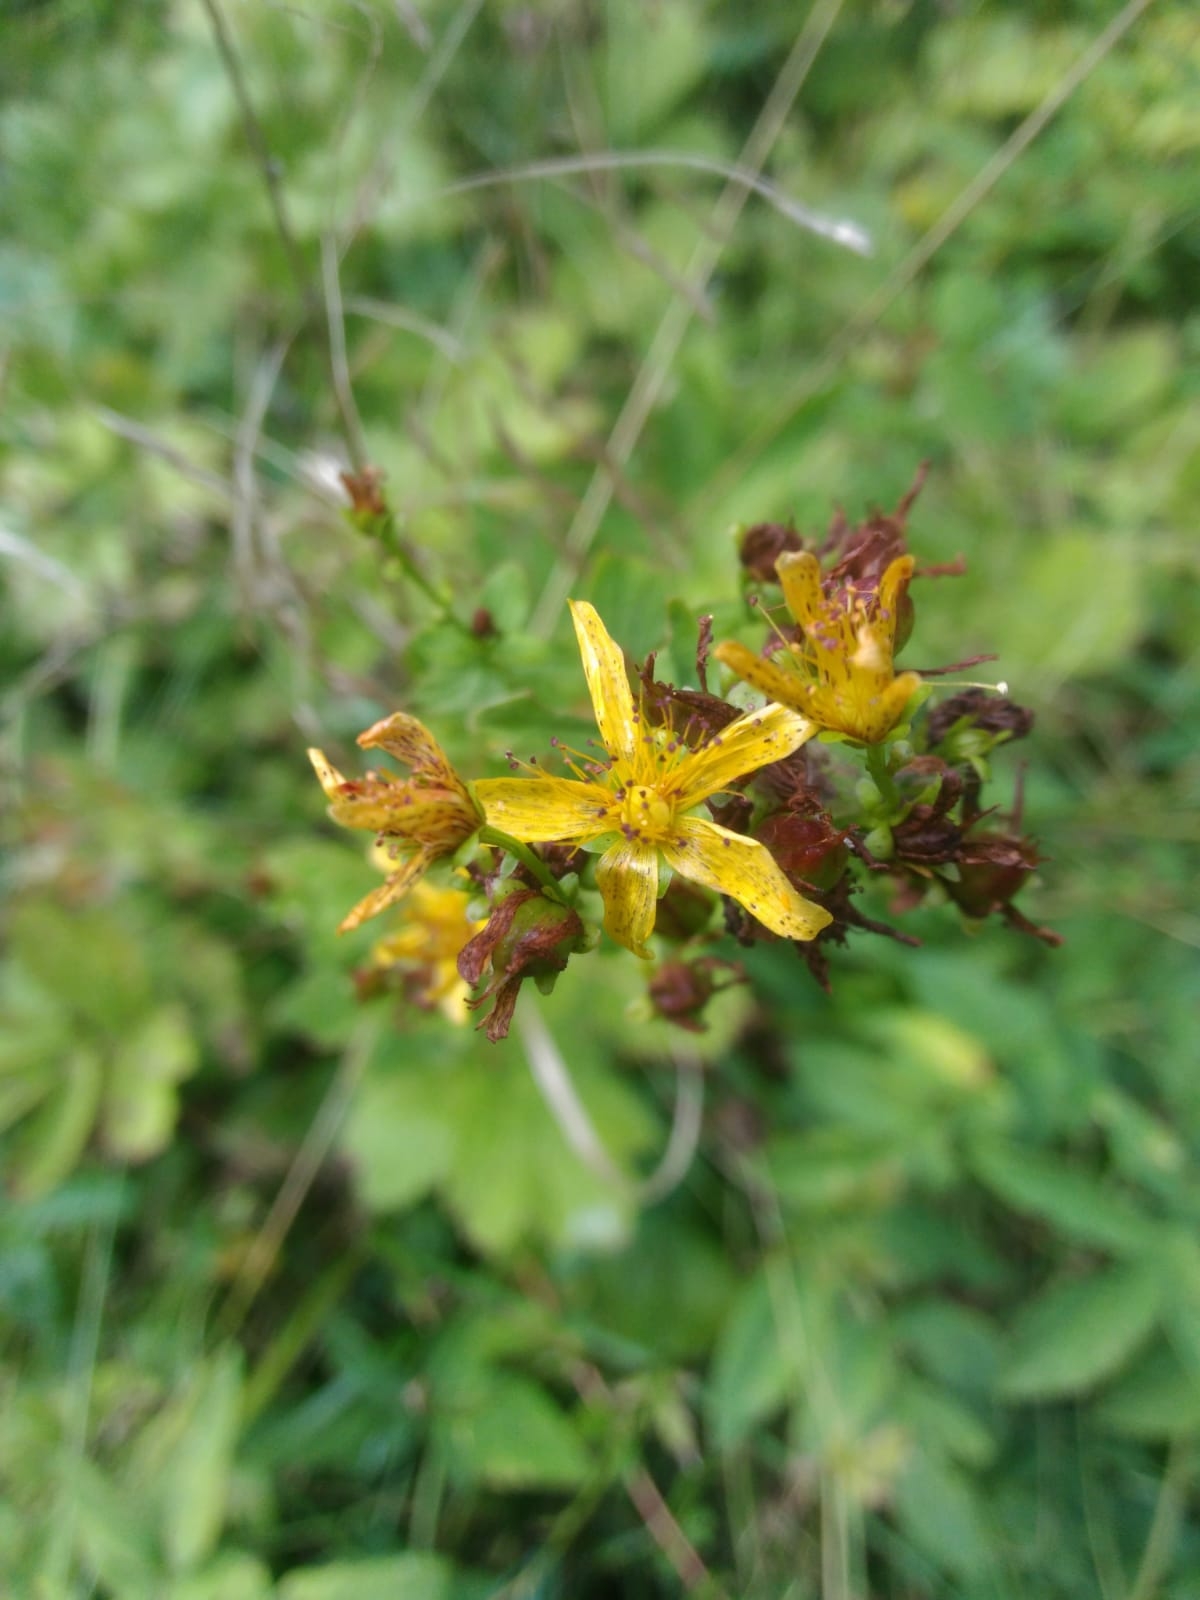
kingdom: Plantae
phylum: Tracheophyta
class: Magnoliopsida
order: Malpighiales
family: Hypericaceae
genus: Hypericum
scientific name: Hypericum maculatum
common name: Imperforate st. john's-wort
